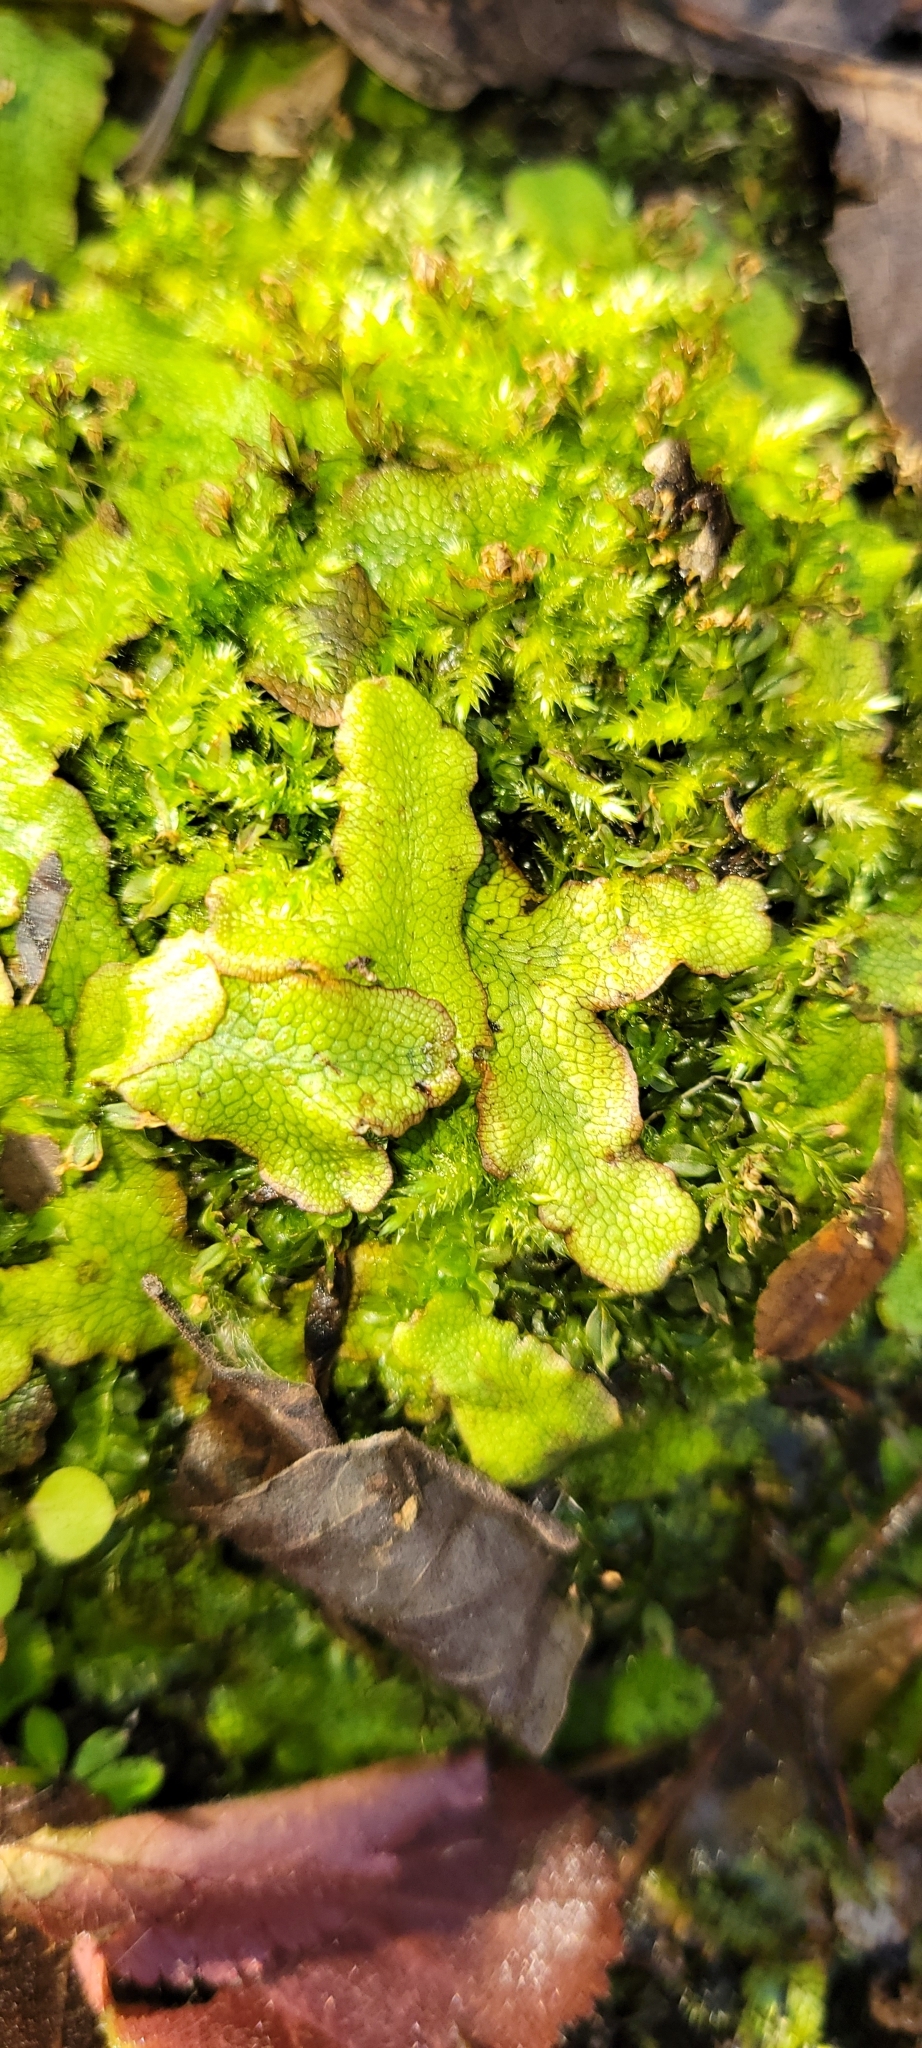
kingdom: Plantae
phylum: Marchantiophyta
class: Marchantiopsida
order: Marchantiales
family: Conocephalaceae
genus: Conocephalum
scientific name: Conocephalum salebrosum
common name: Cat-tongue liverwort
